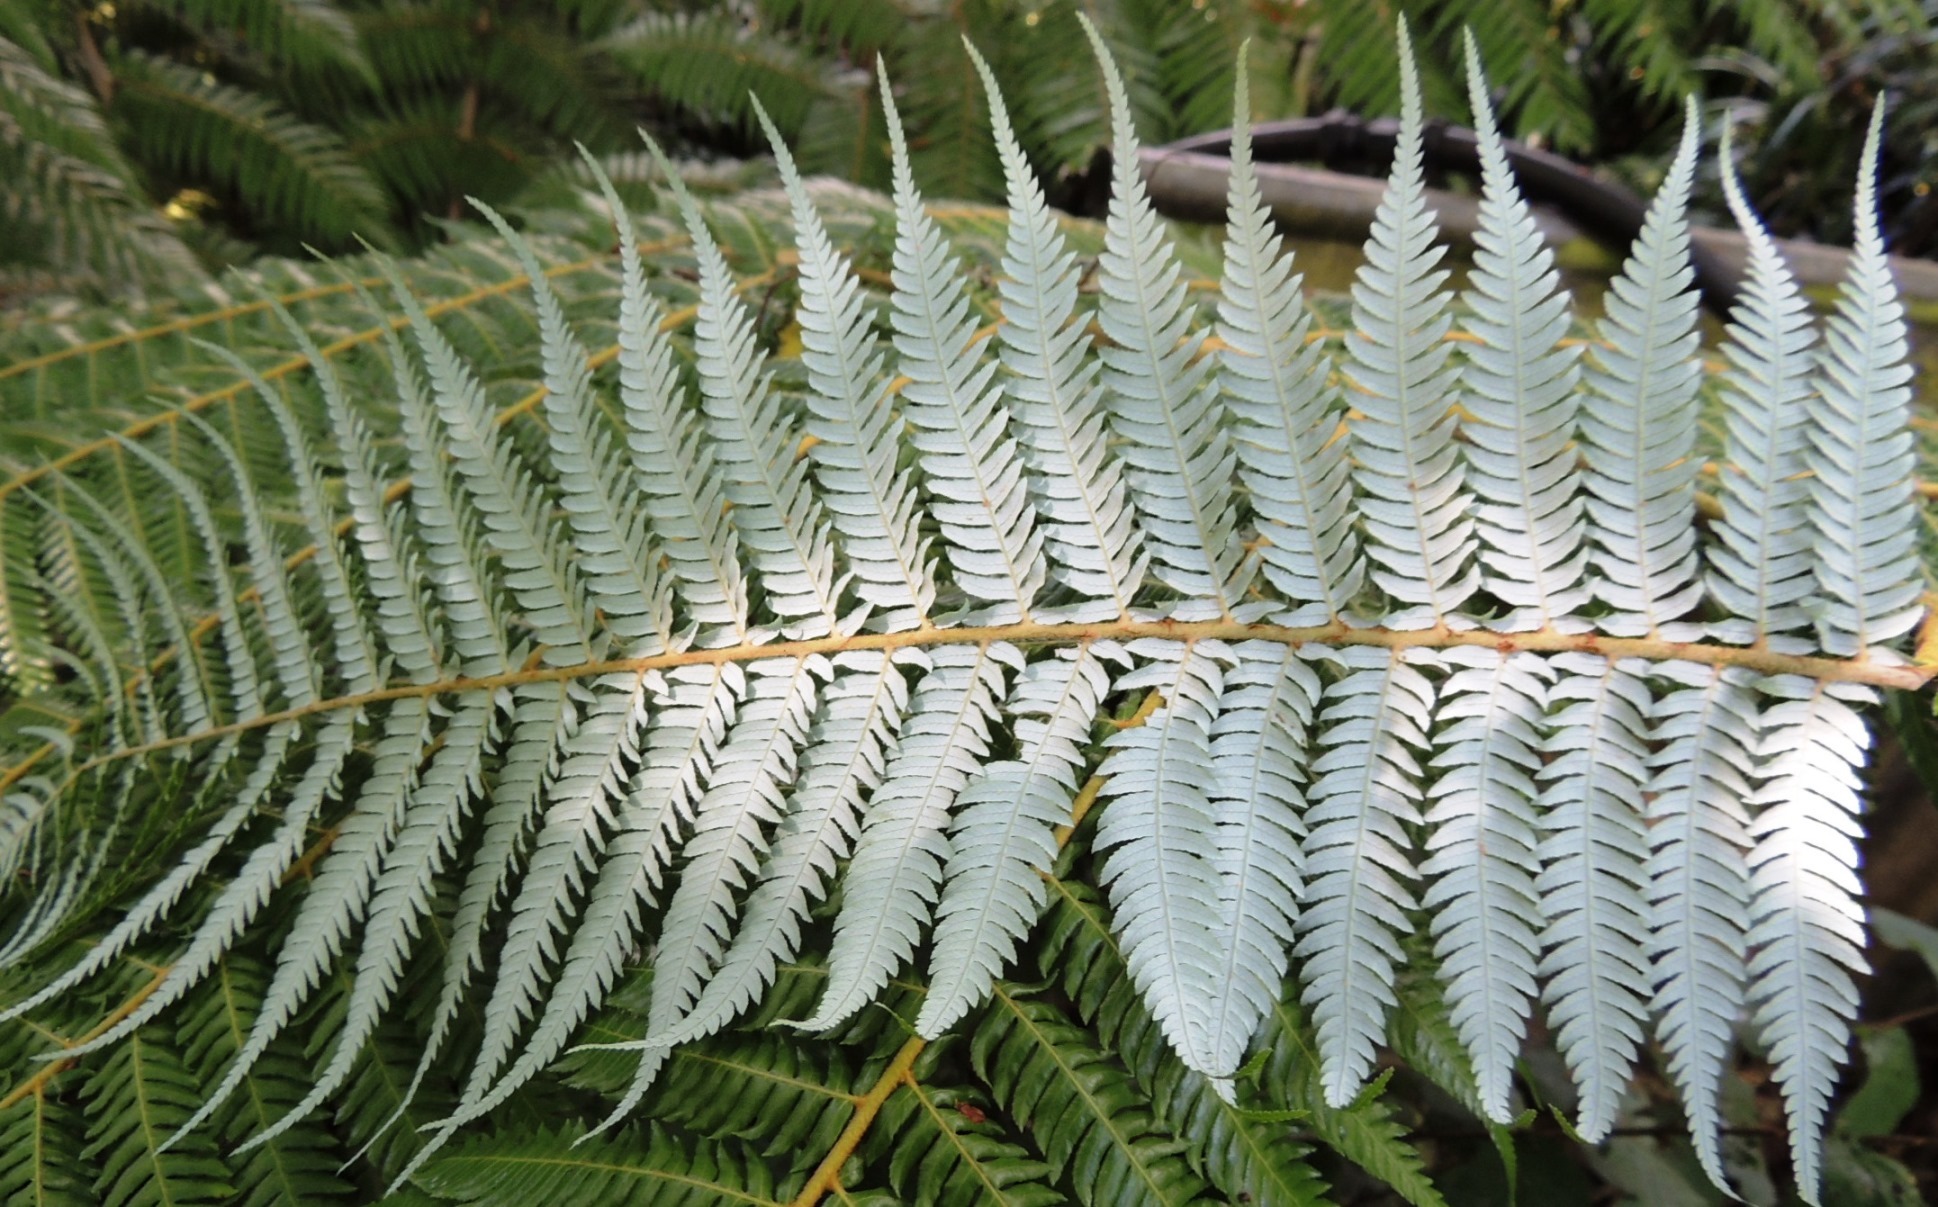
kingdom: Plantae
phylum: Tracheophyta
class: Polypodiopsida
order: Cyatheales
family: Cyatheaceae
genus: Alsophila
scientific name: Alsophila dealbata
